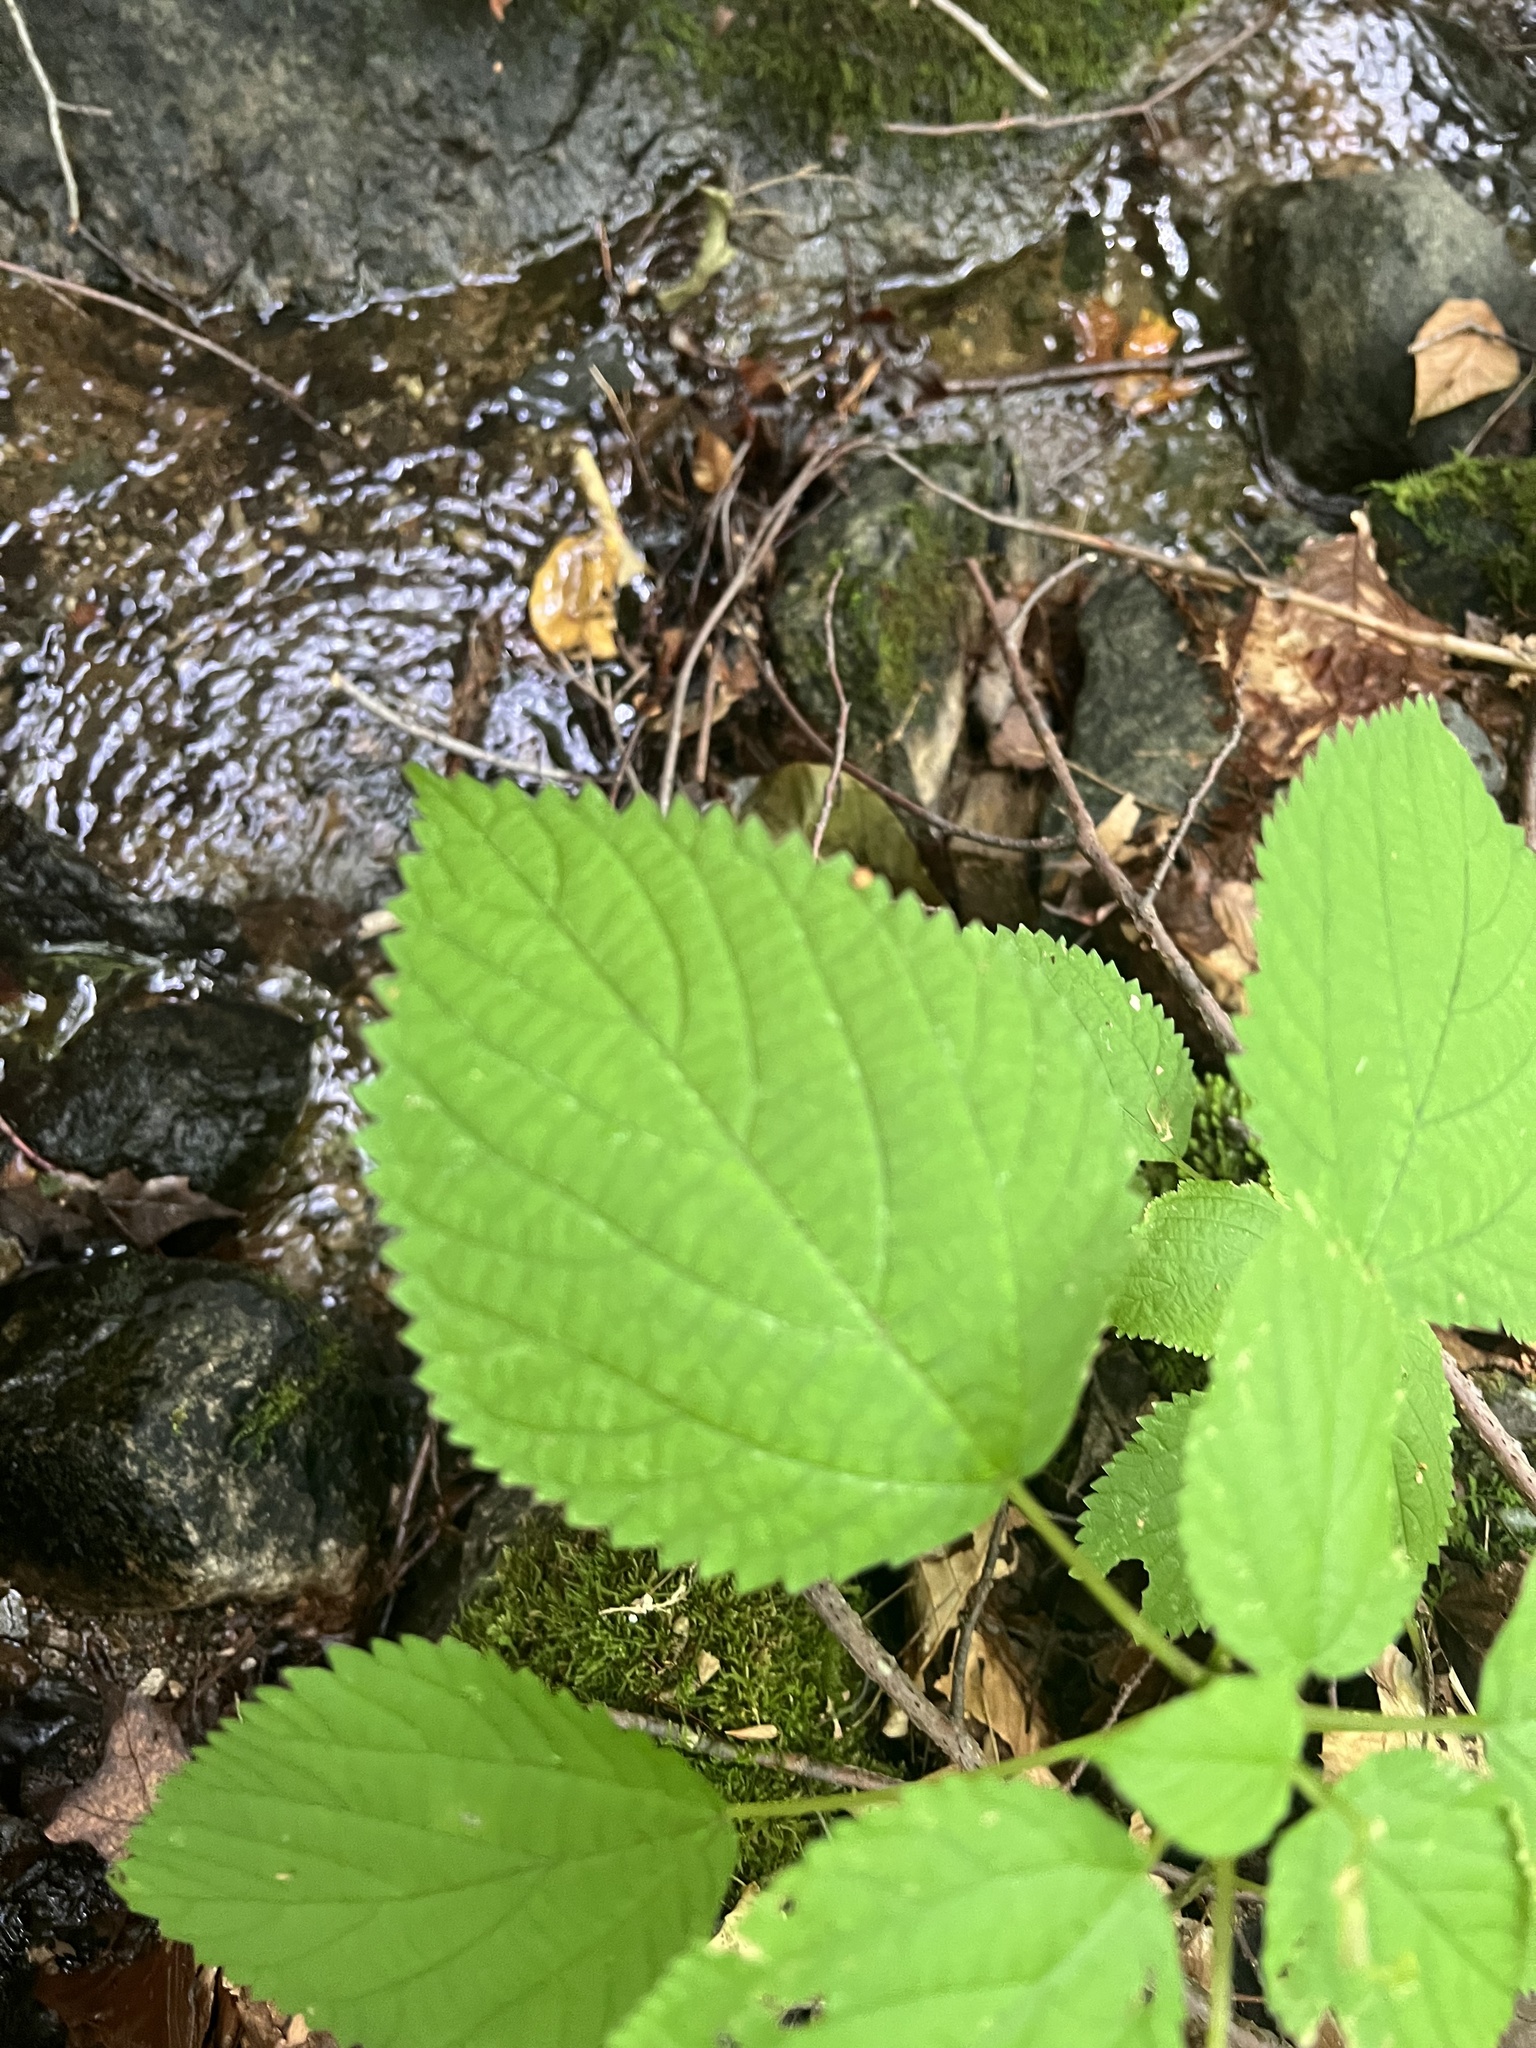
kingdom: Plantae
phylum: Tracheophyta
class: Magnoliopsida
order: Rosales
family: Urticaceae
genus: Laportea
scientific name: Laportea canadensis
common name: Canada nettle
